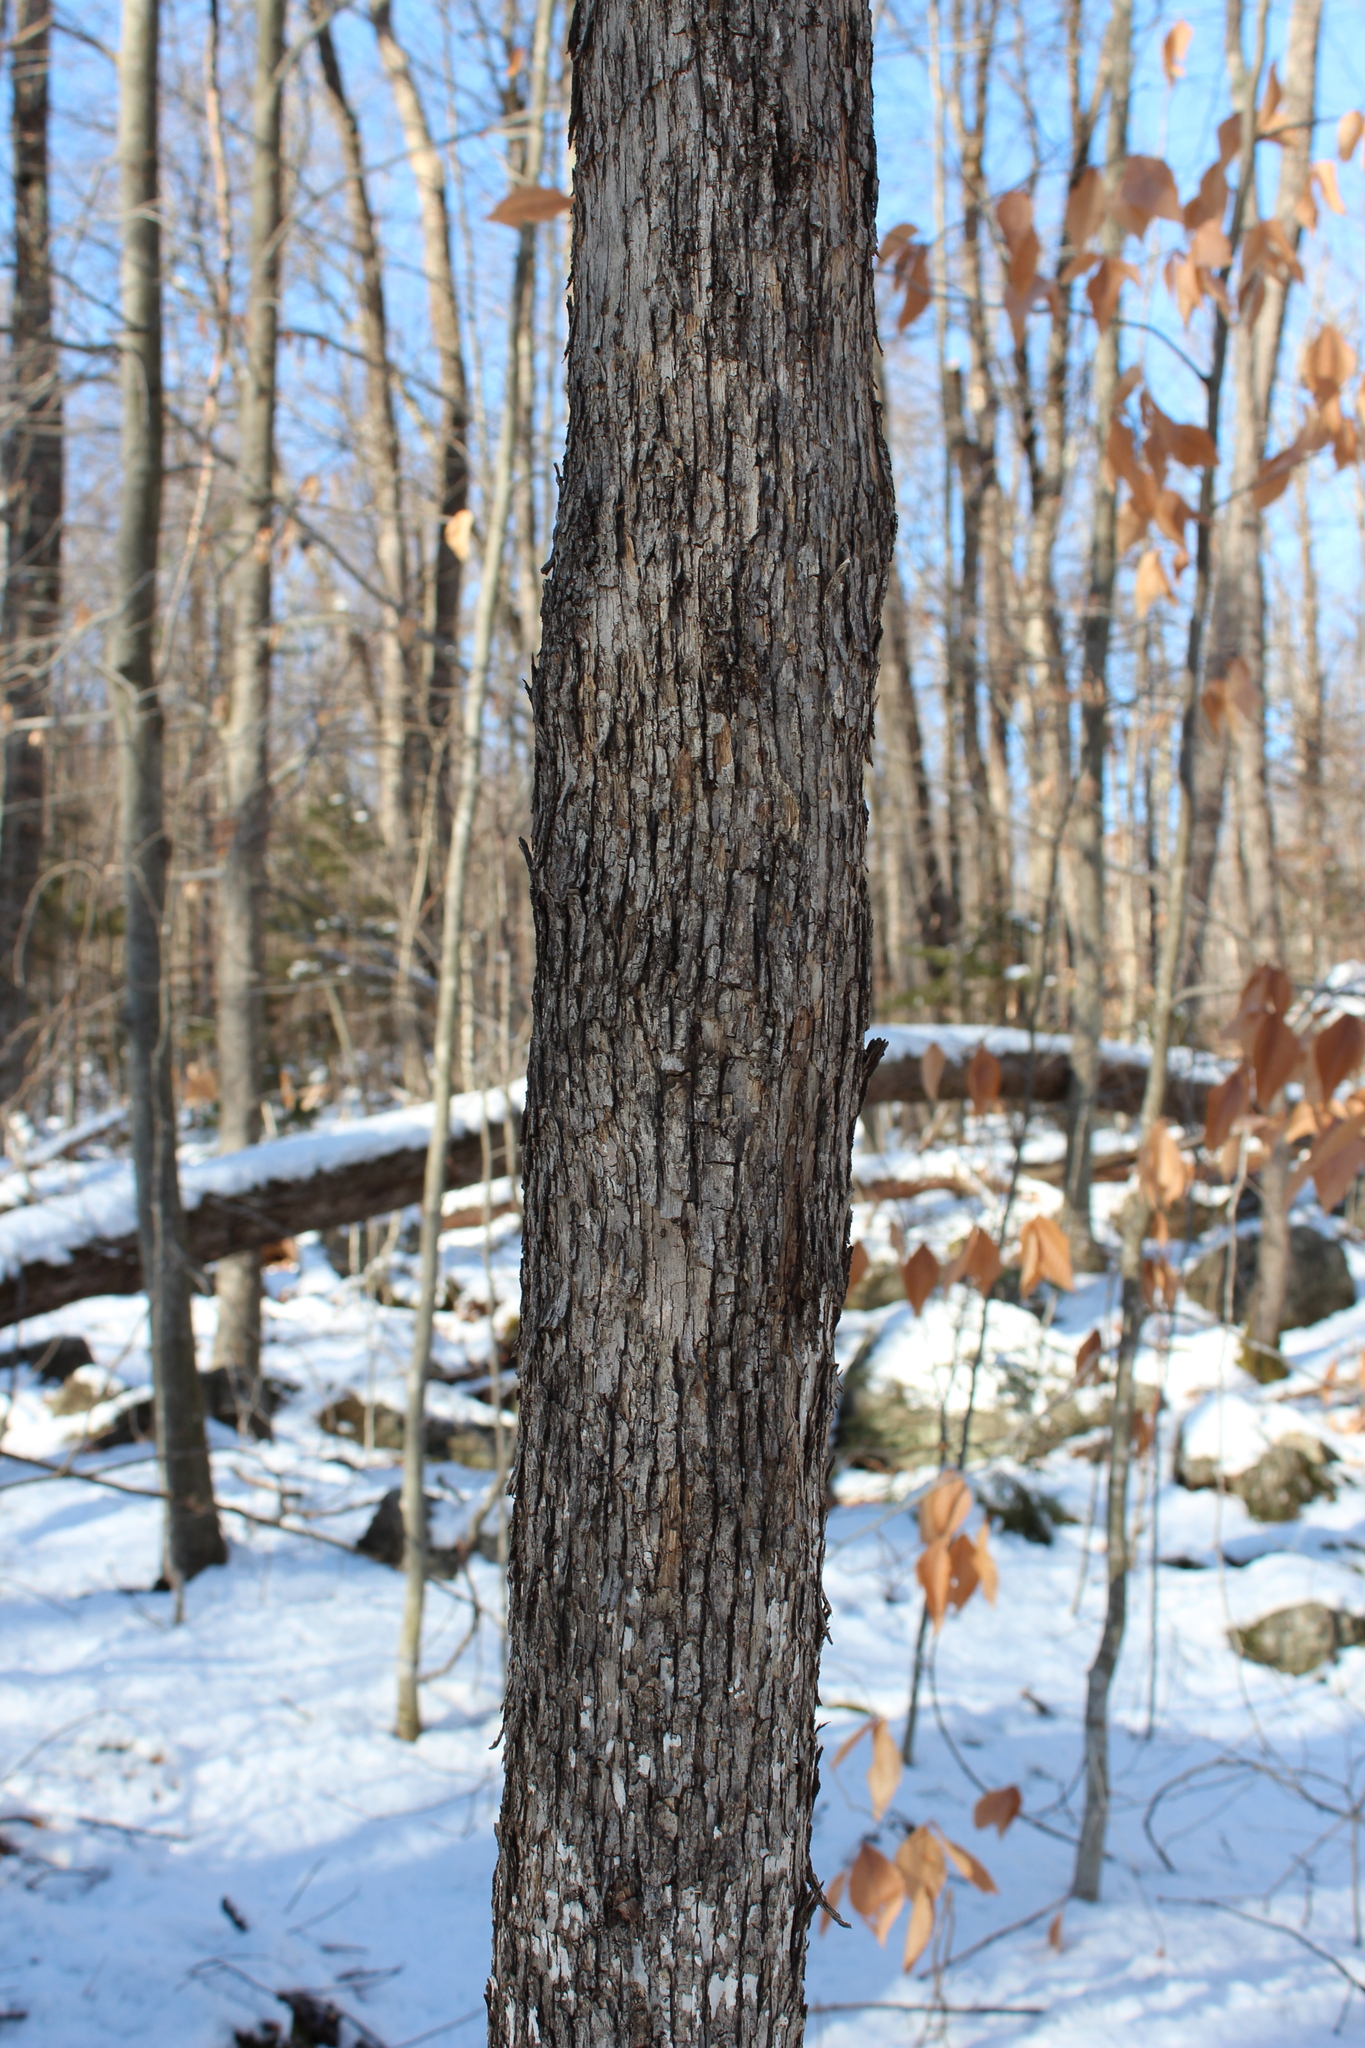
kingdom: Plantae
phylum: Tracheophyta
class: Magnoliopsida
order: Fagales
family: Betulaceae
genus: Ostrya
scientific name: Ostrya virginiana
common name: Ironwood
